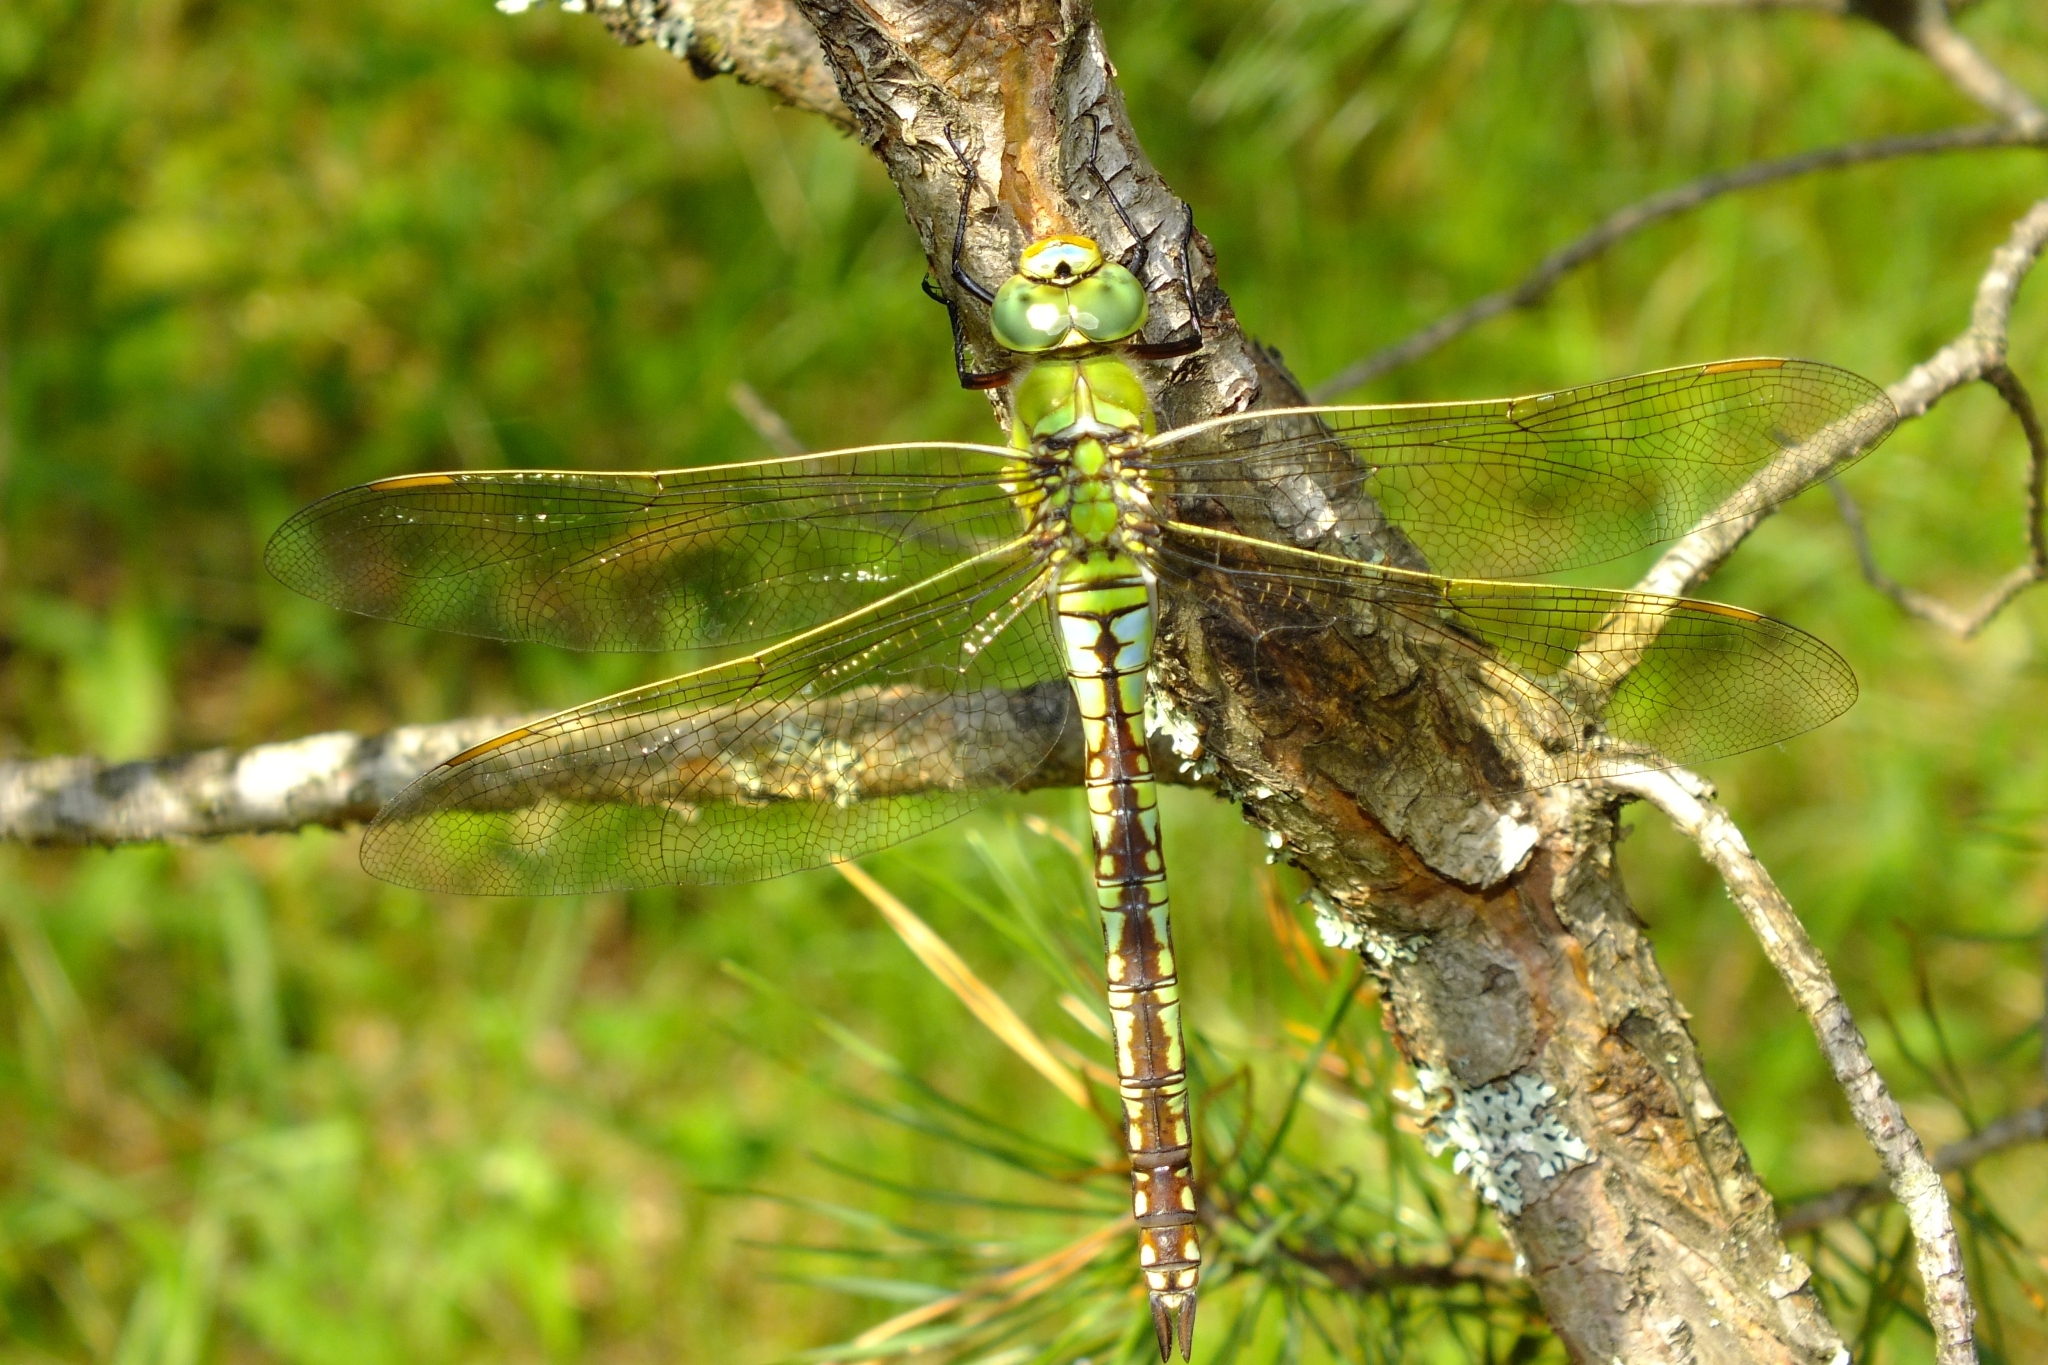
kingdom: Animalia
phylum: Arthropoda
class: Insecta
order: Odonata
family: Aeshnidae
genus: Anax
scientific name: Anax imperator
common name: Emperor dragonfly
